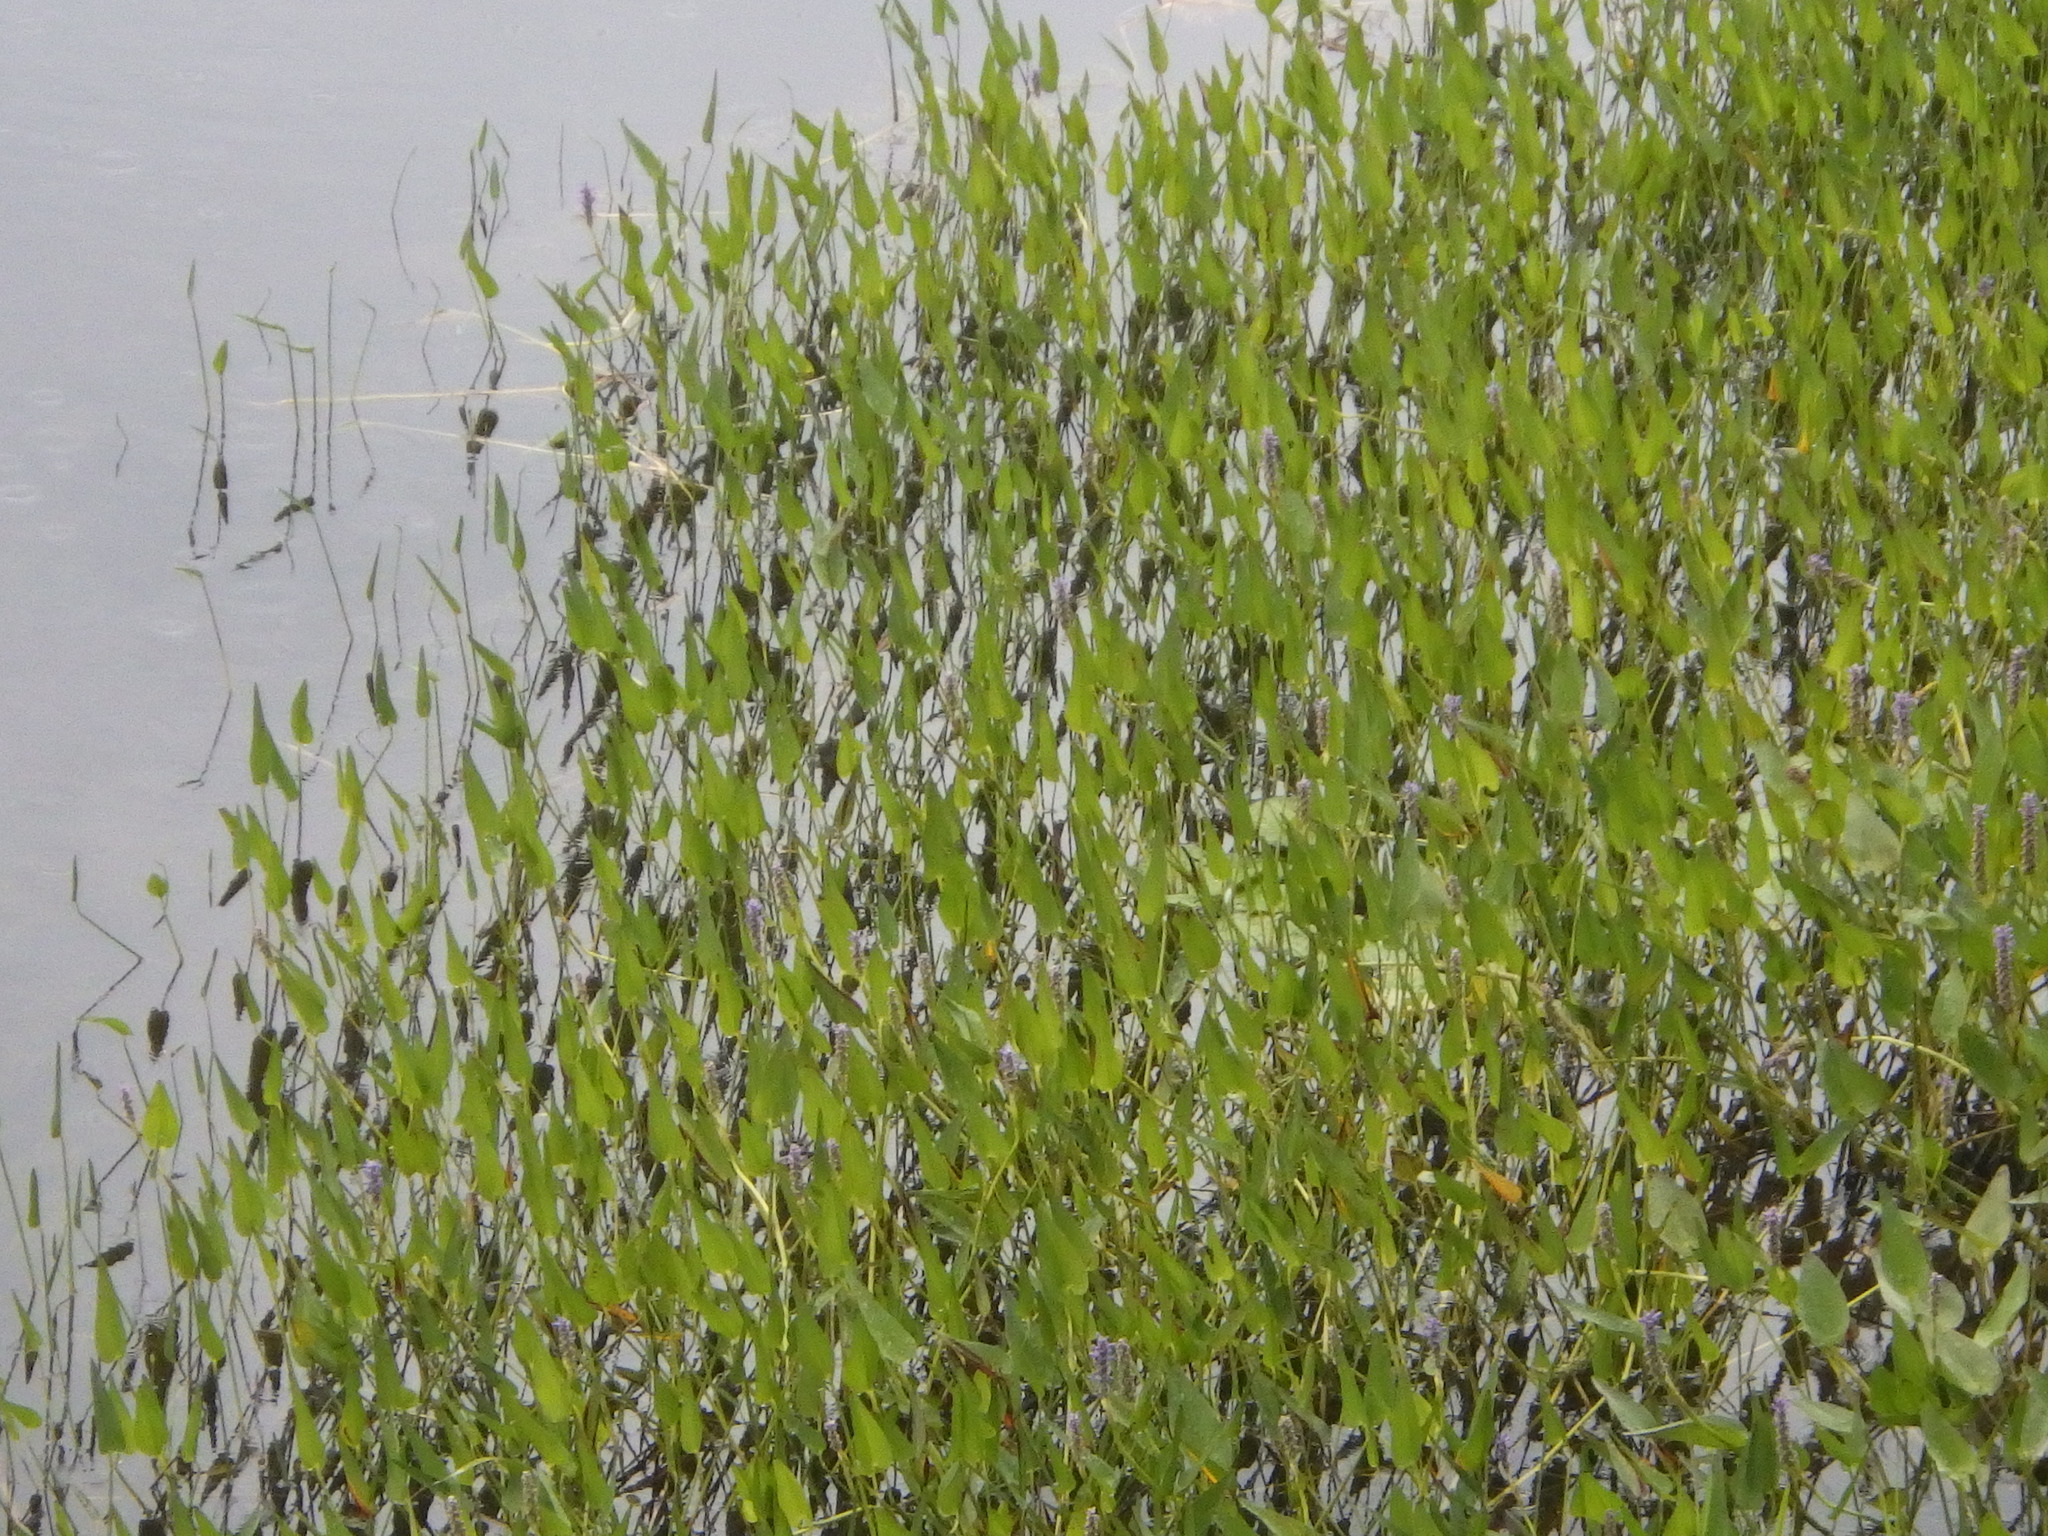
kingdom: Plantae
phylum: Tracheophyta
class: Liliopsida
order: Commelinales
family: Pontederiaceae
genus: Pontederia
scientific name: Pontederia cordata
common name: Pickerelweed
